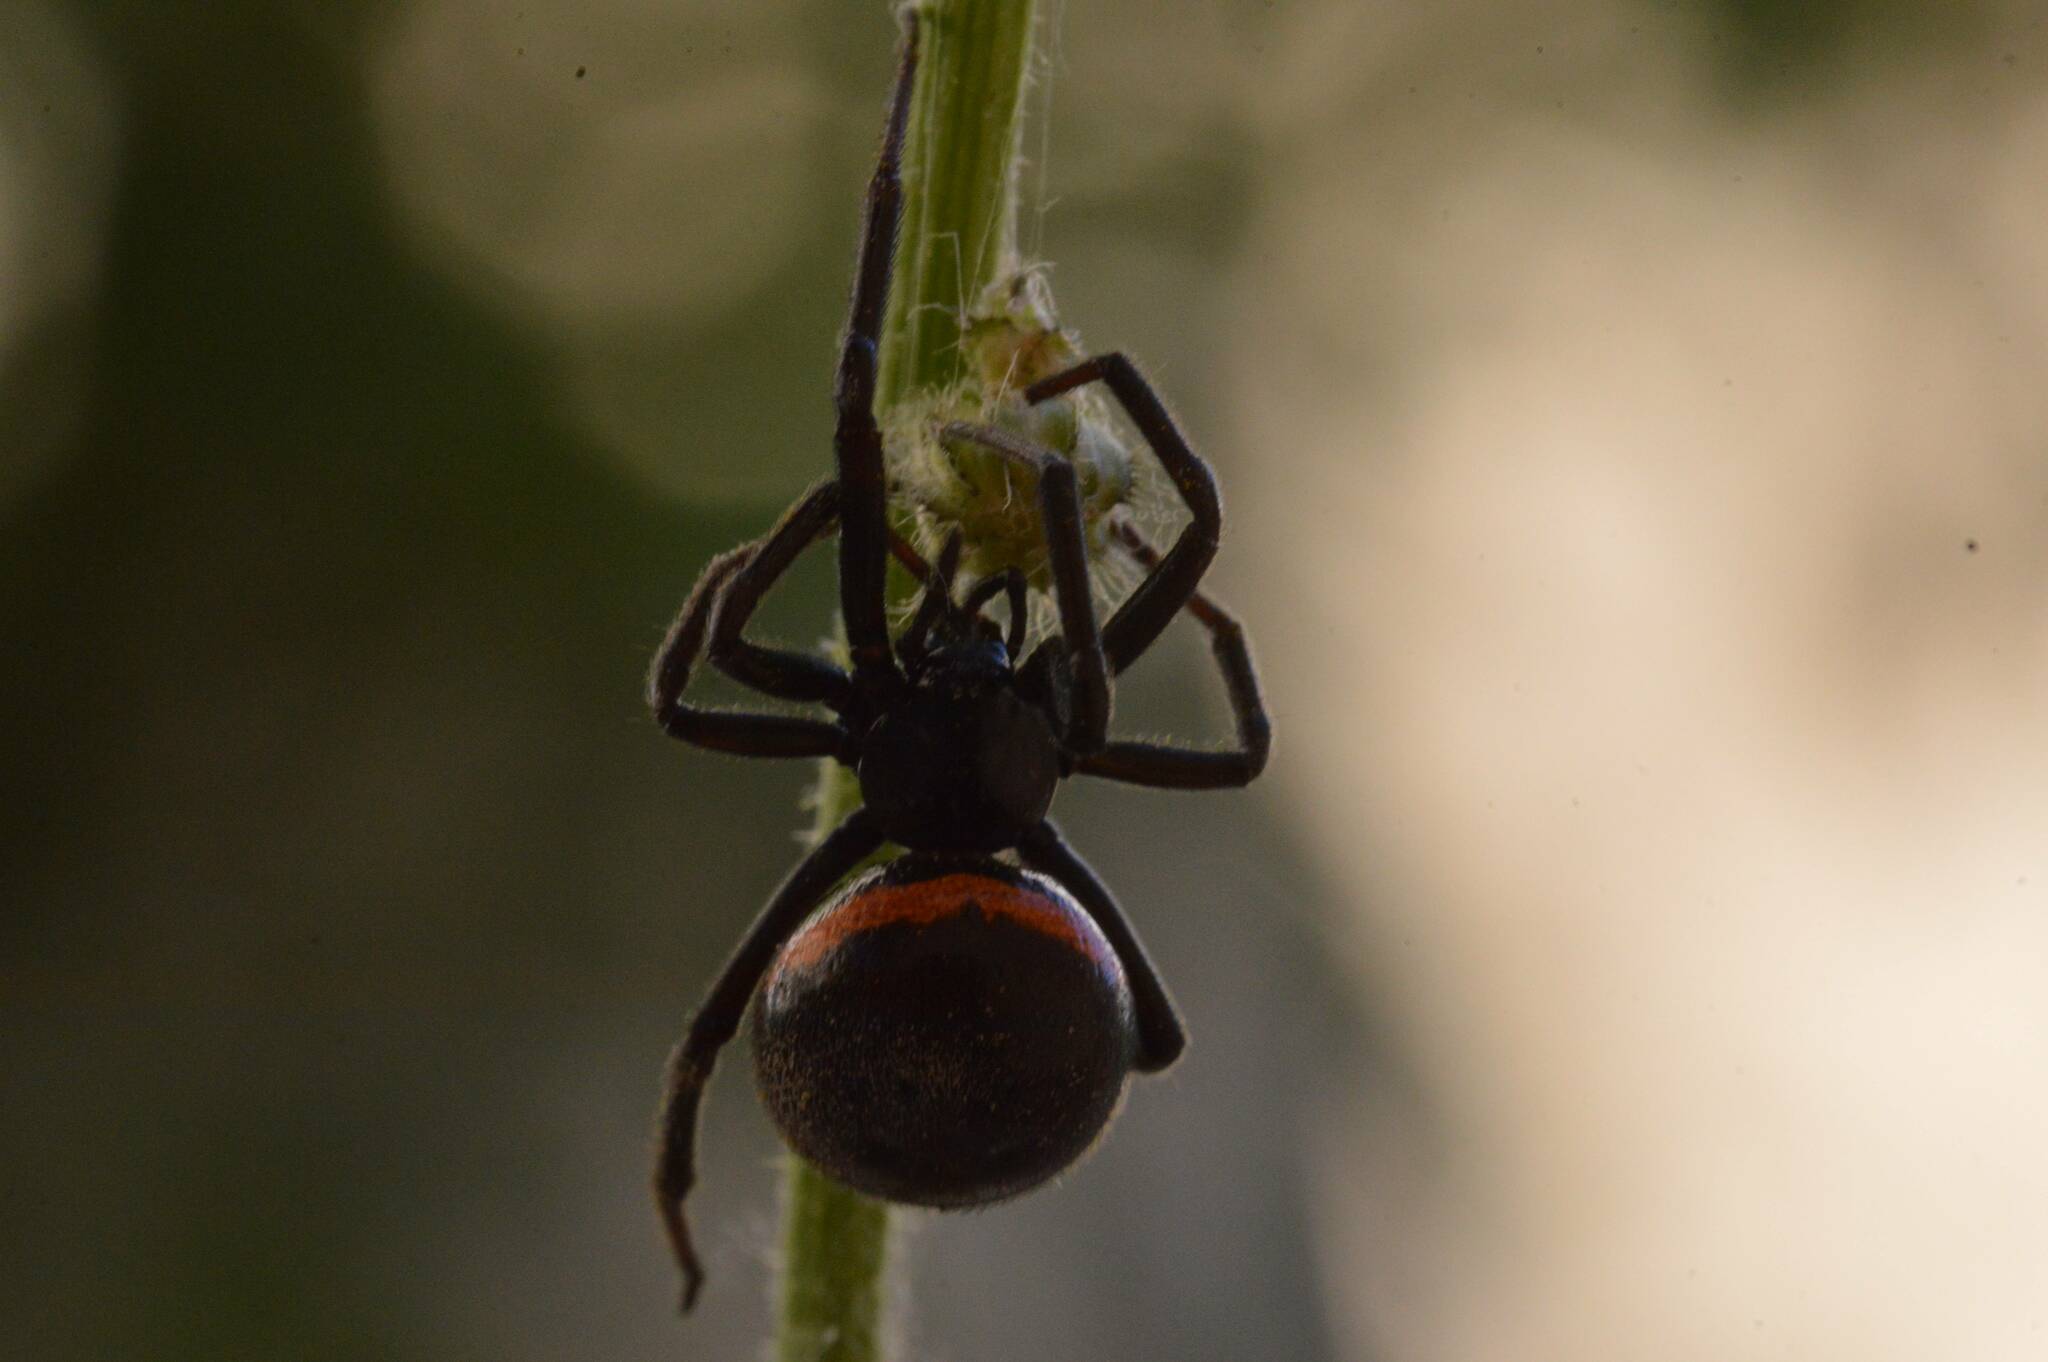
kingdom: Animalia
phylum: Arthropoda
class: Arachnida
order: Araneae
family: Theridiidae
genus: Steatoda
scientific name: Steatoda paykulliana
